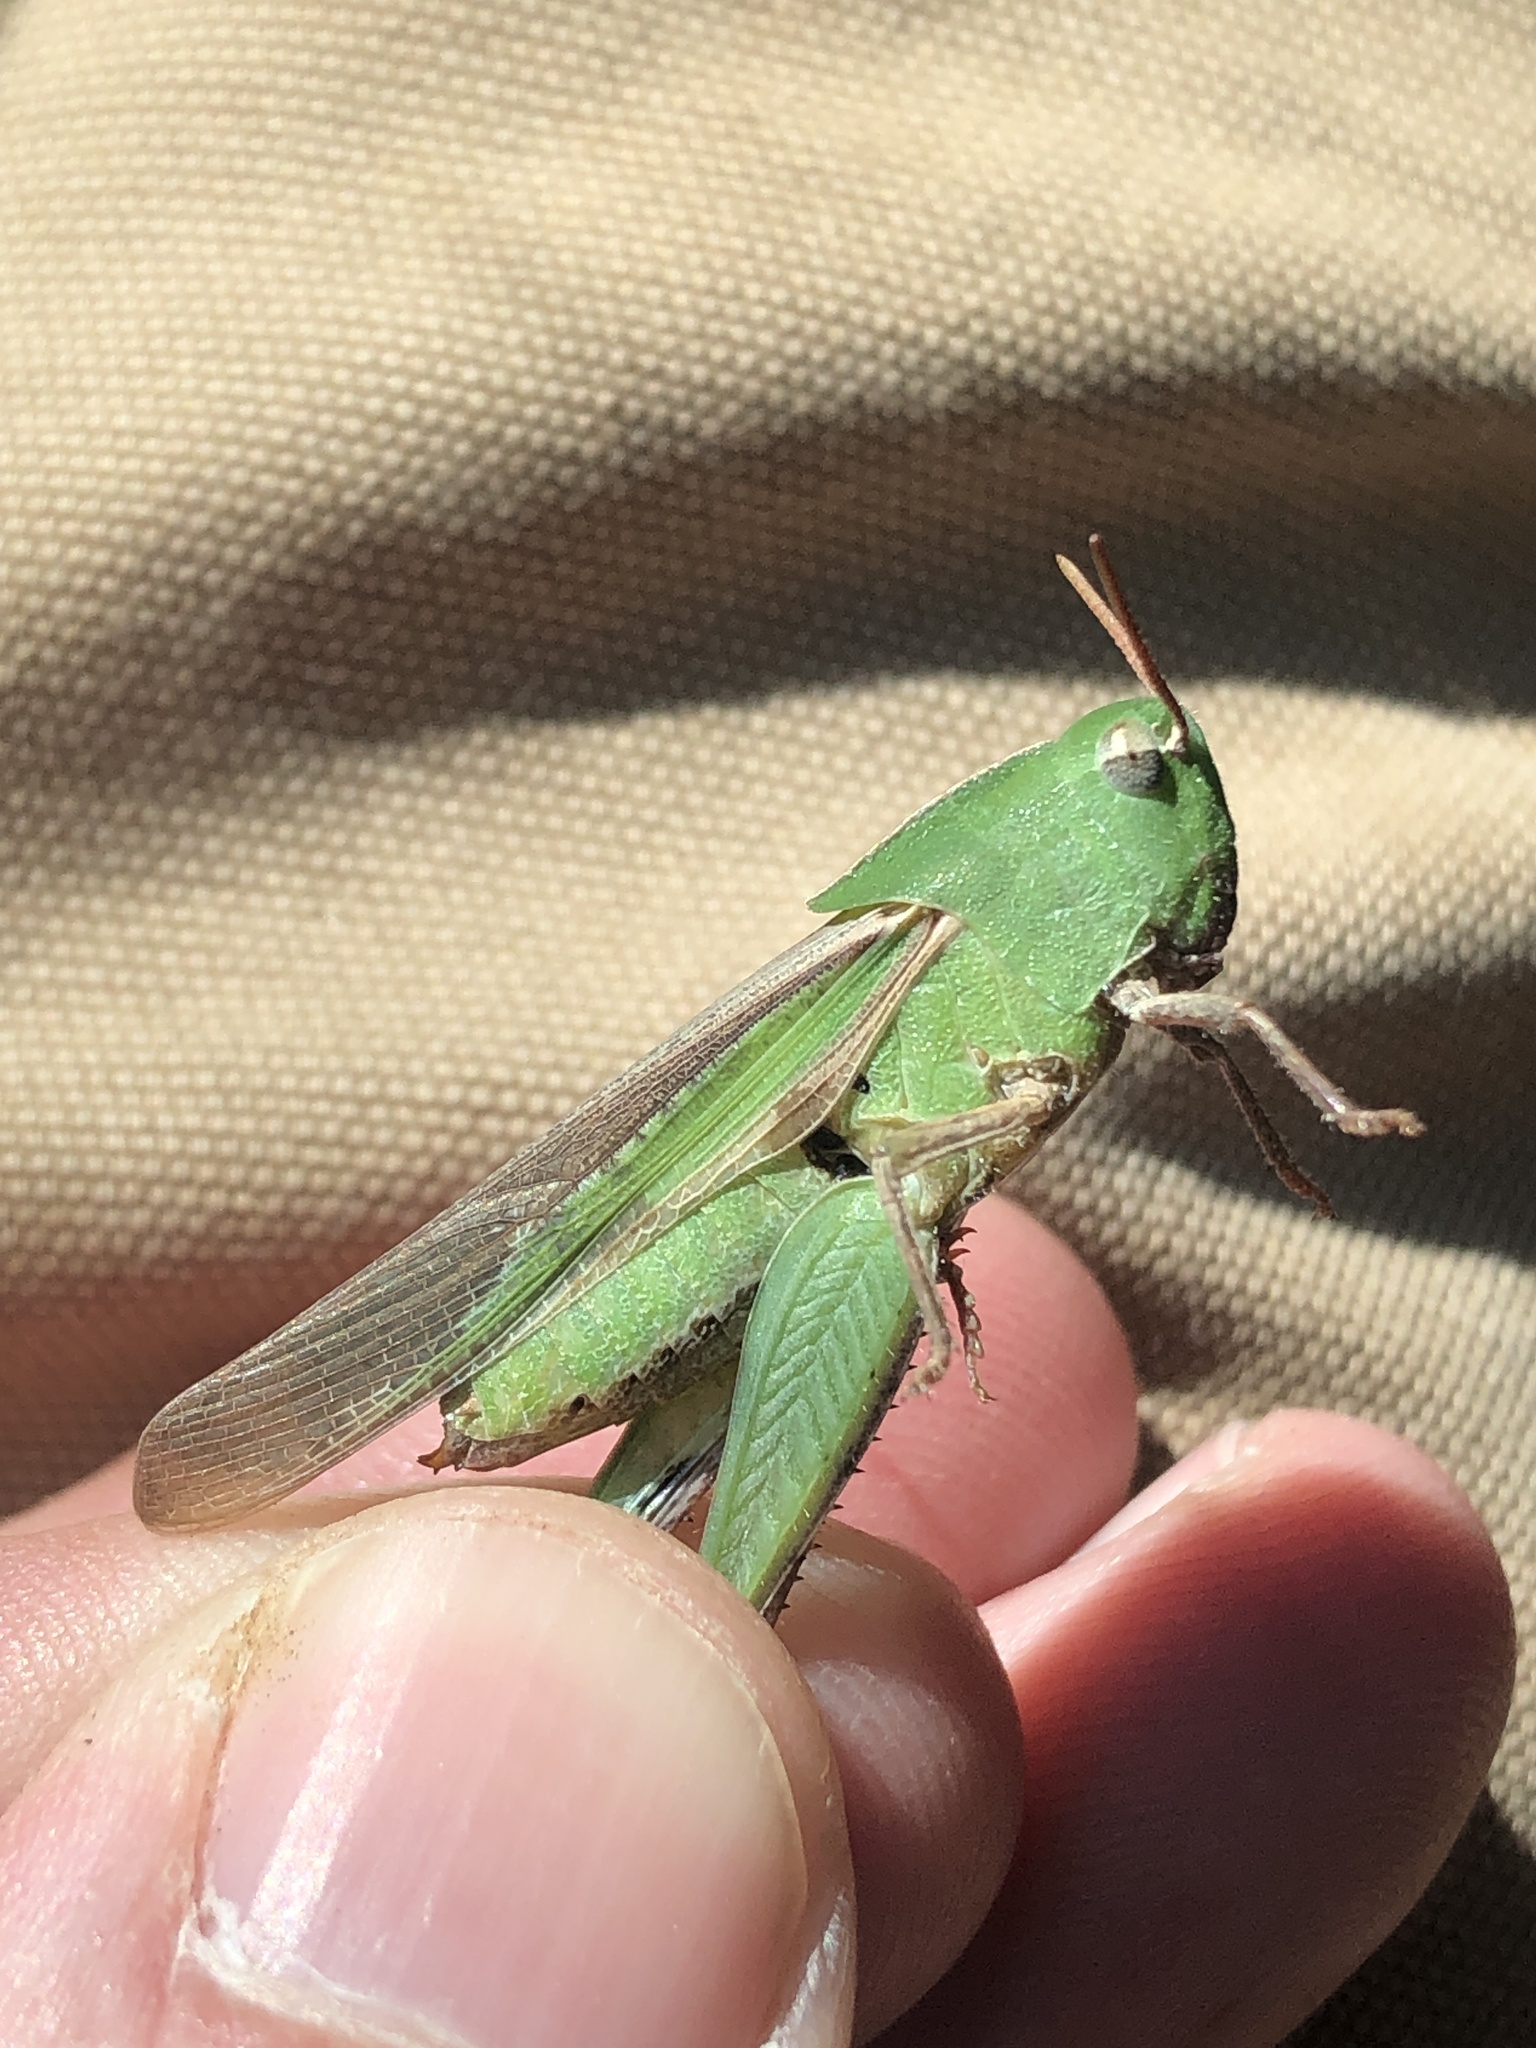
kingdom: Animalia
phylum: Arthropoda
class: Insecta
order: Orthoptera
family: Acrididae
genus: Chortophaga
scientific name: Chortophaga viridifasciata
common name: Green-striped grasshopper
